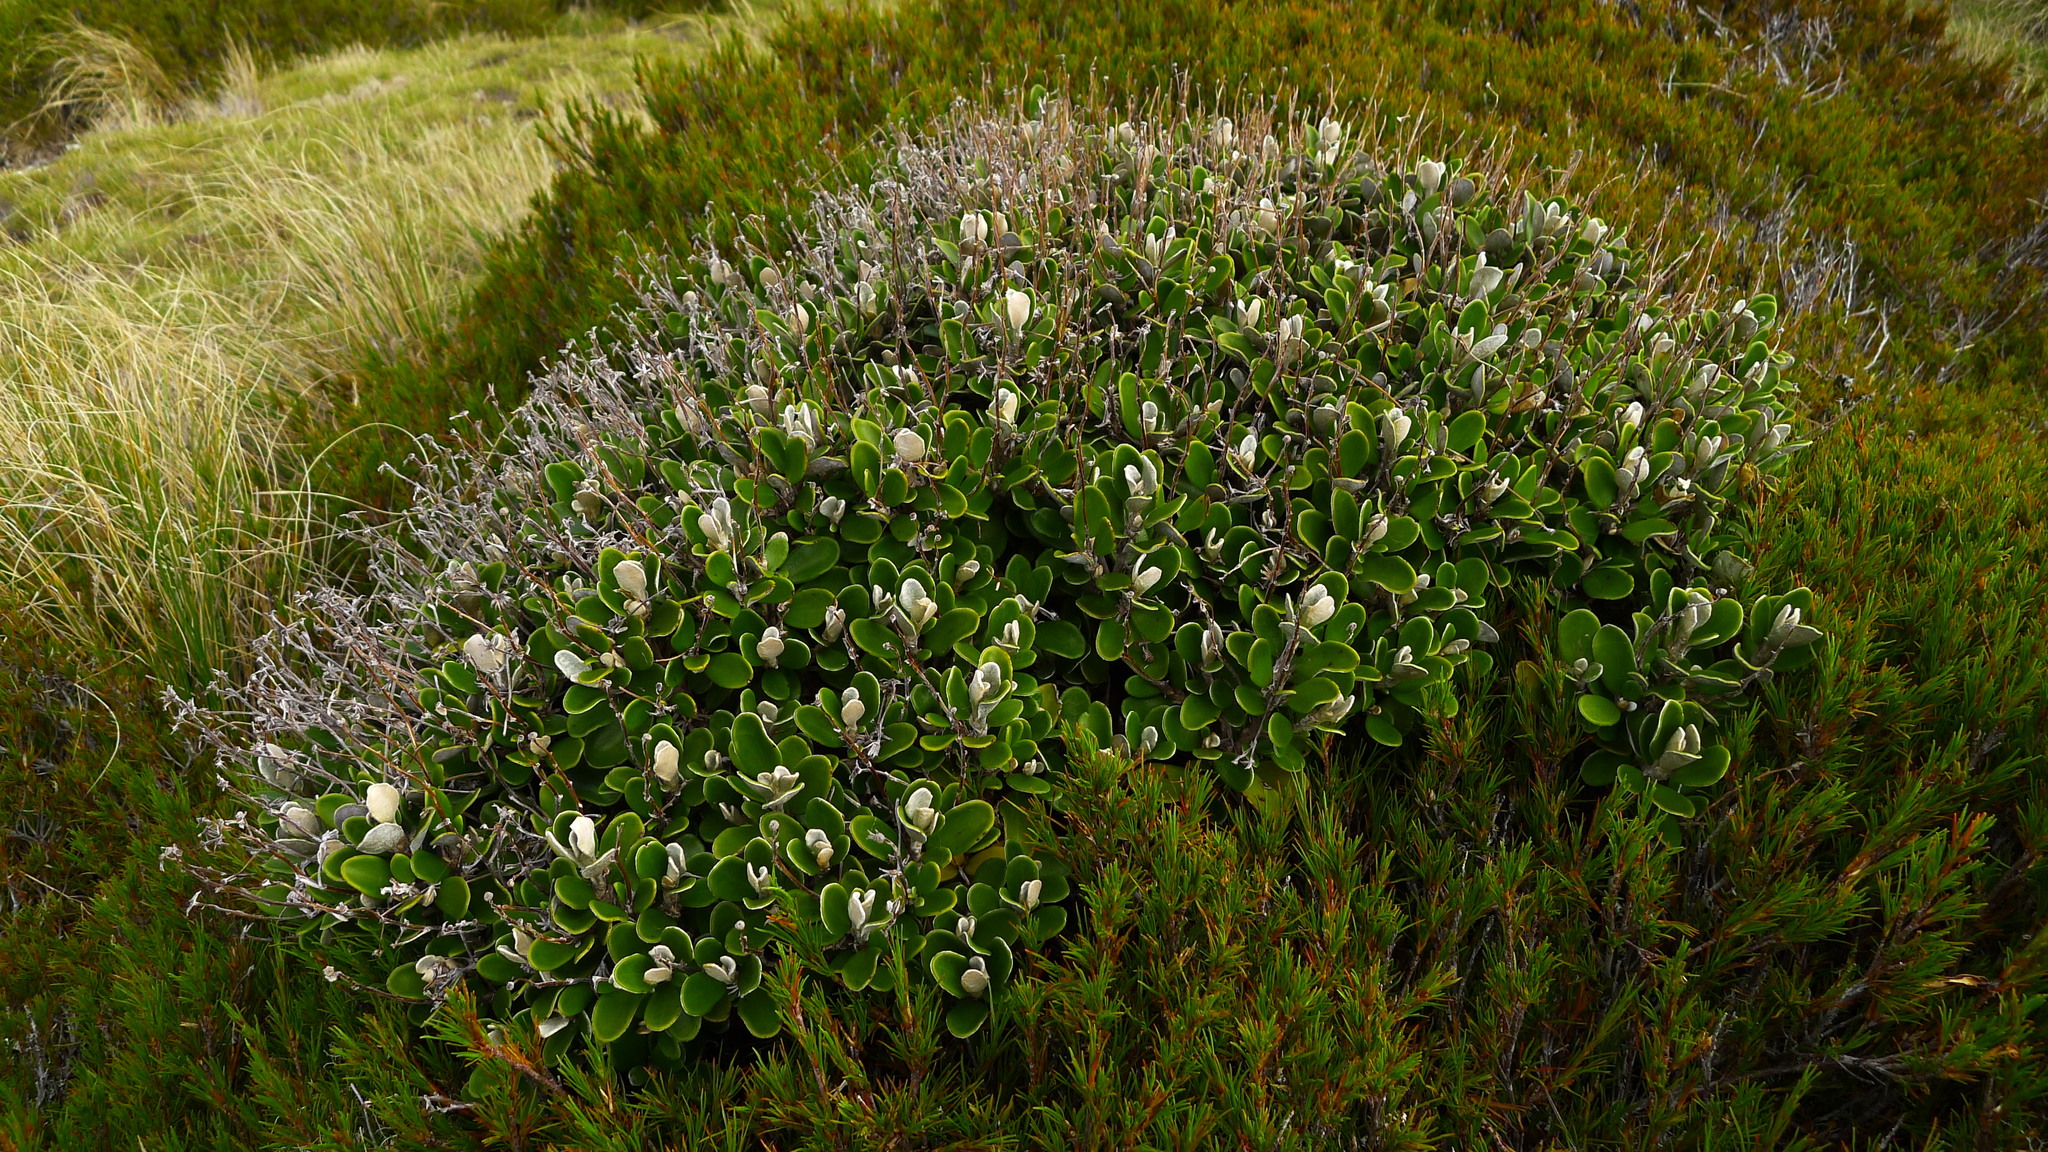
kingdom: Plantae
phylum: Tracheophyta
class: Magnoliopsida
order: Asterales
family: Asteraceae
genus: Brachyglottis
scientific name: Brachyglottis bidwillii
